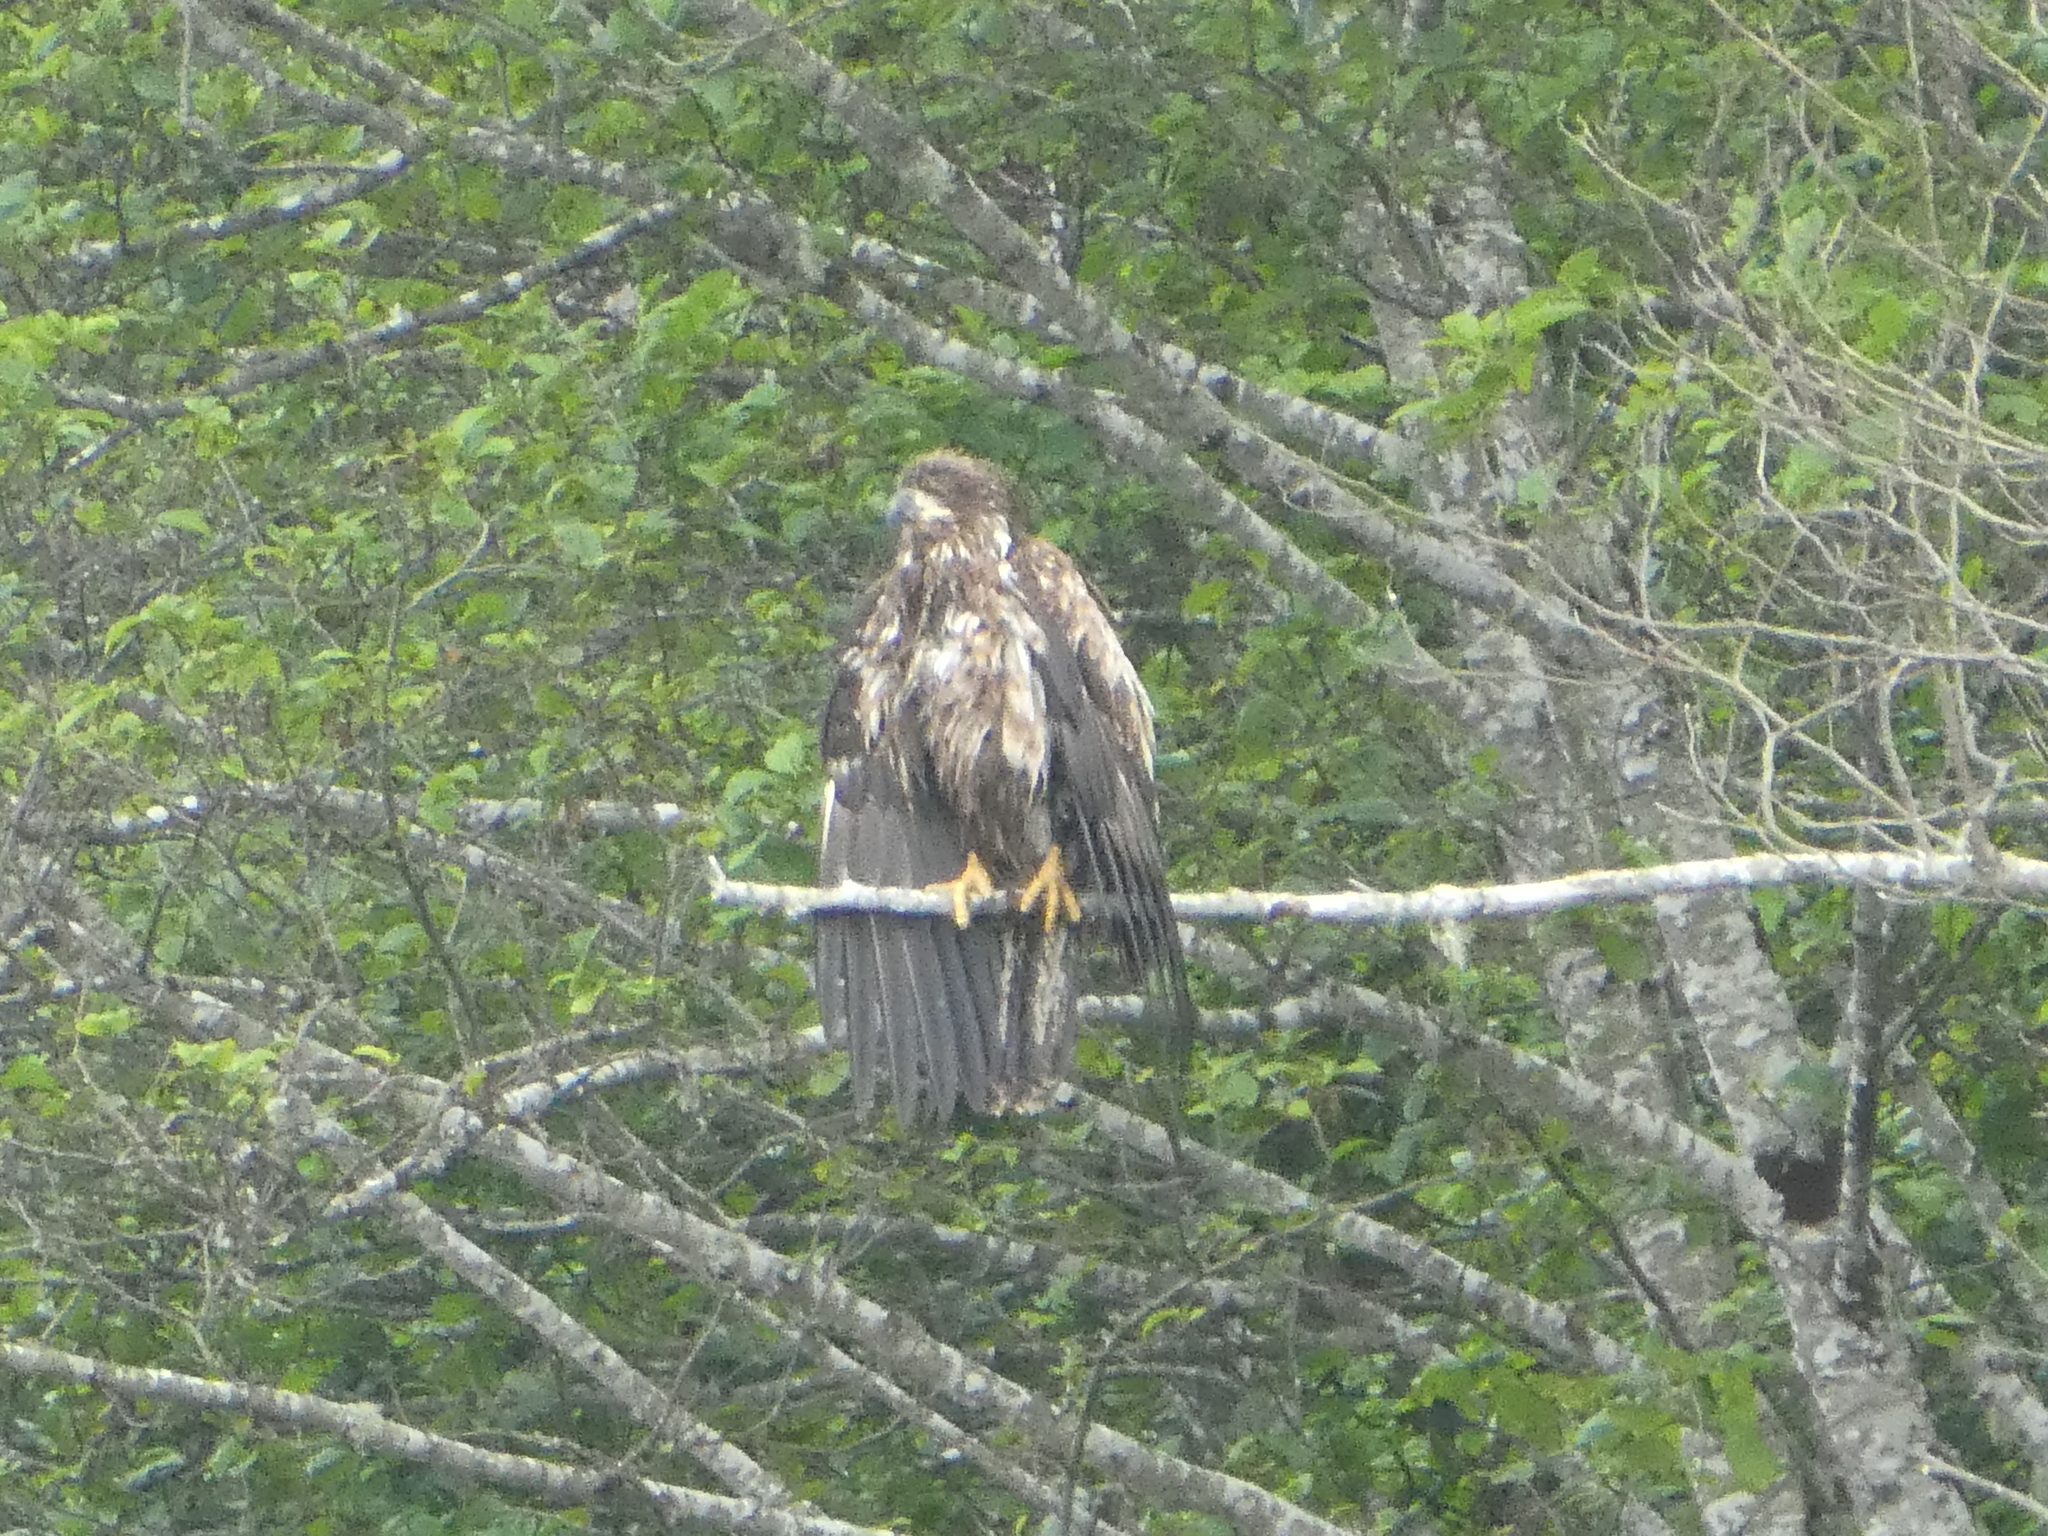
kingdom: Animalia
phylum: Chordata
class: Aves
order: Accipitriformes
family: Accipitridae
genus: Haliaeetus
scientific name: Haliaeetus leucocephalus
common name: Bald eagle
